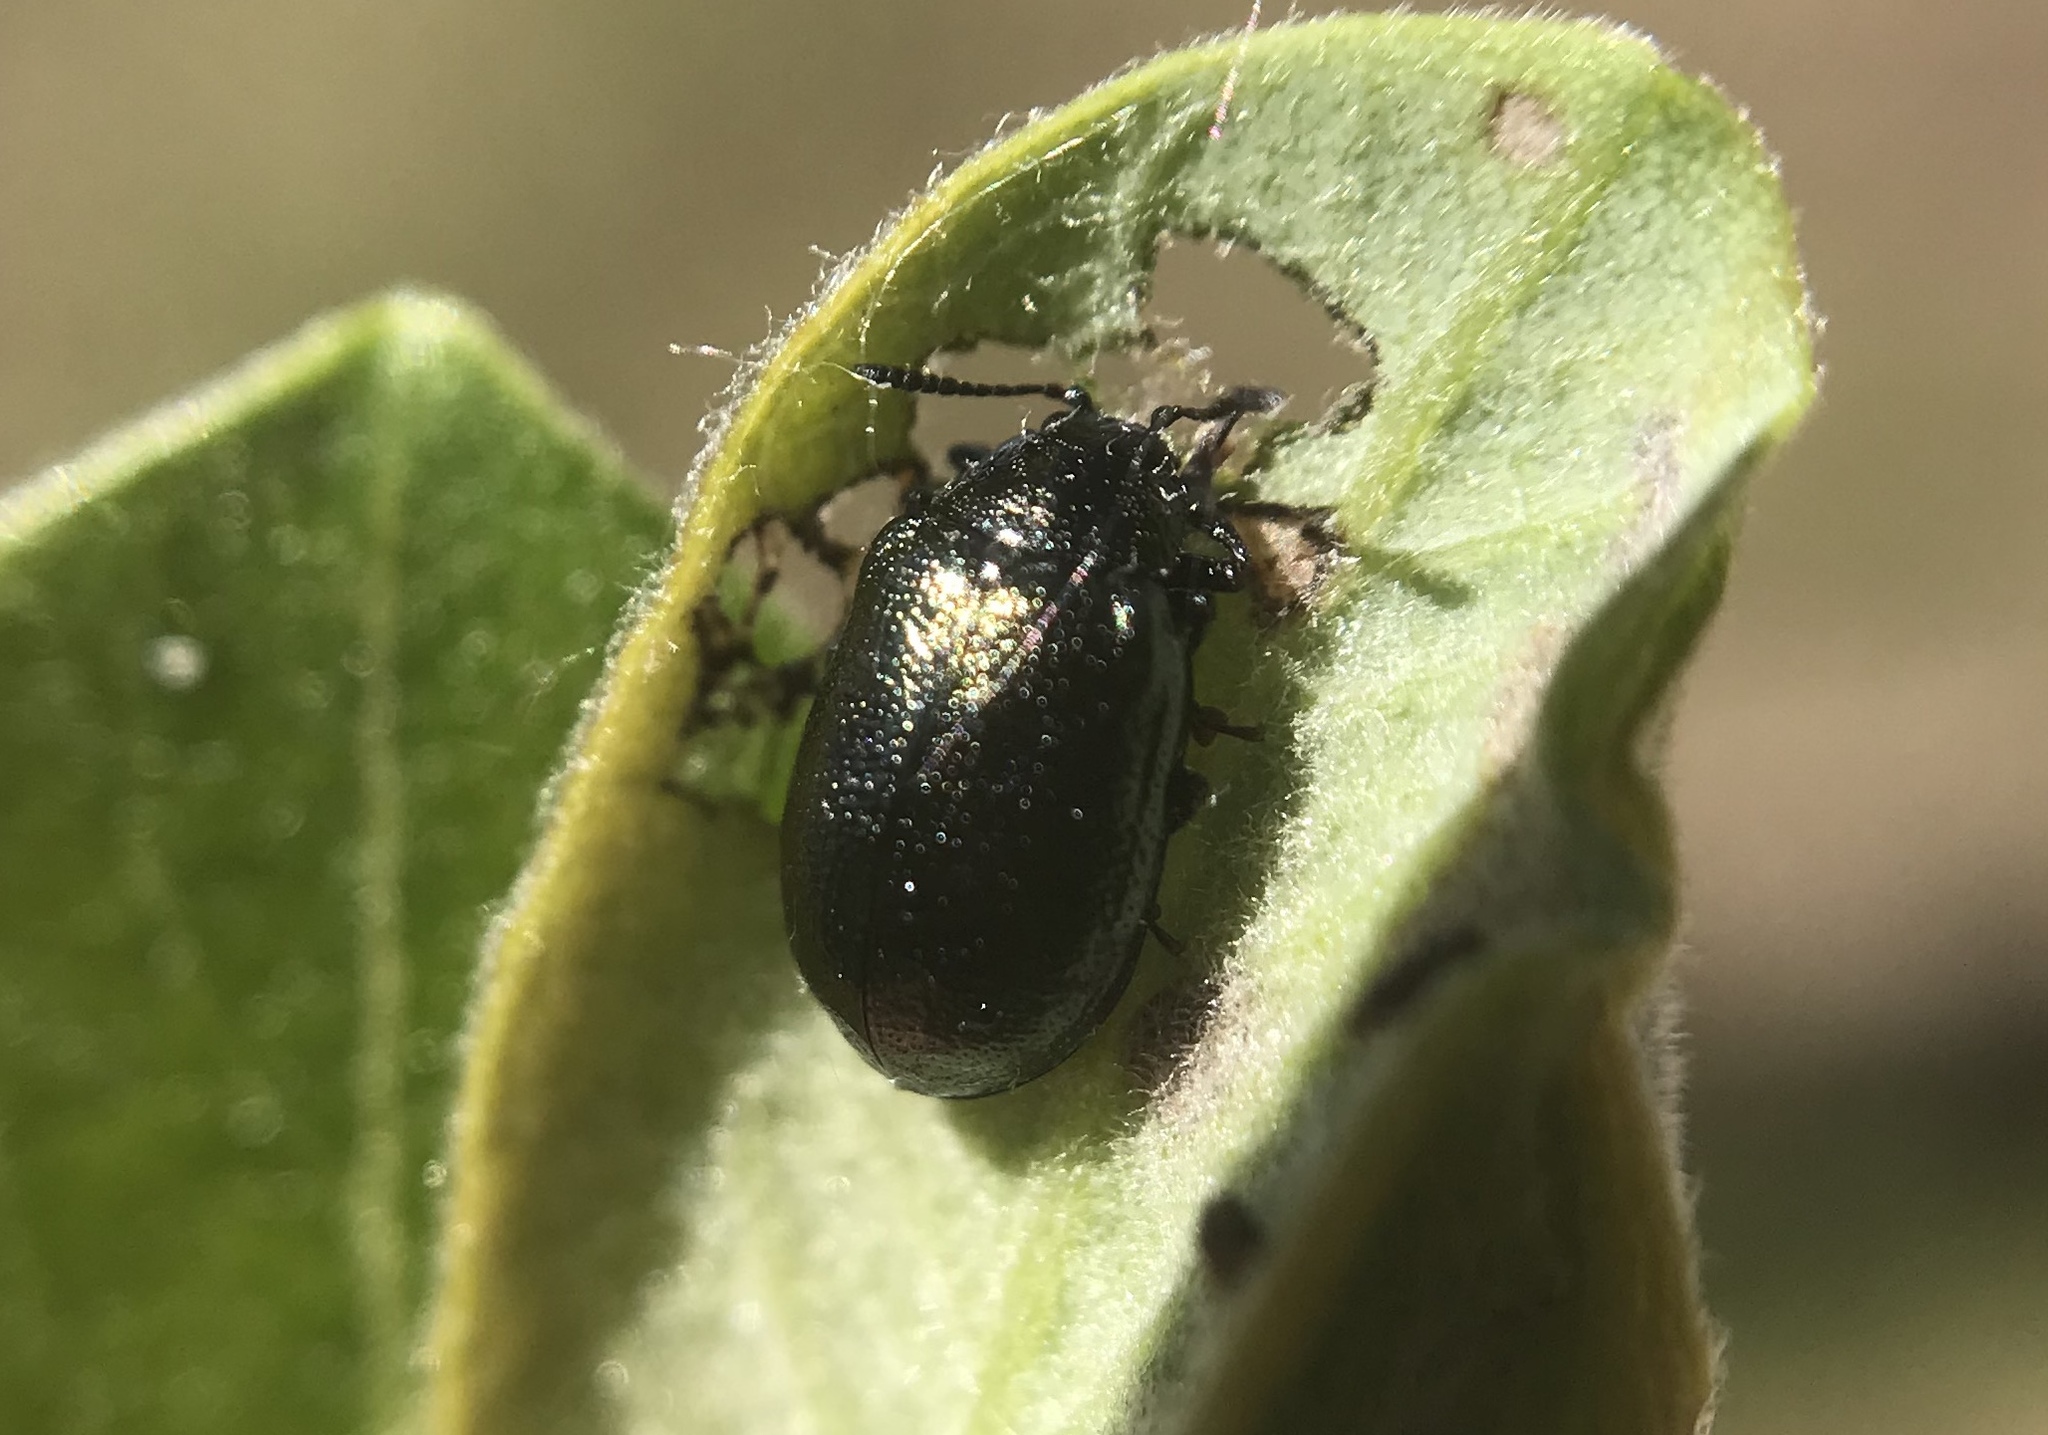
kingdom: Animalia
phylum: Arthropoda
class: Insecta
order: Coleoptera
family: Chrysomelidae
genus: Plagiodera
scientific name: Plagiodera californica
